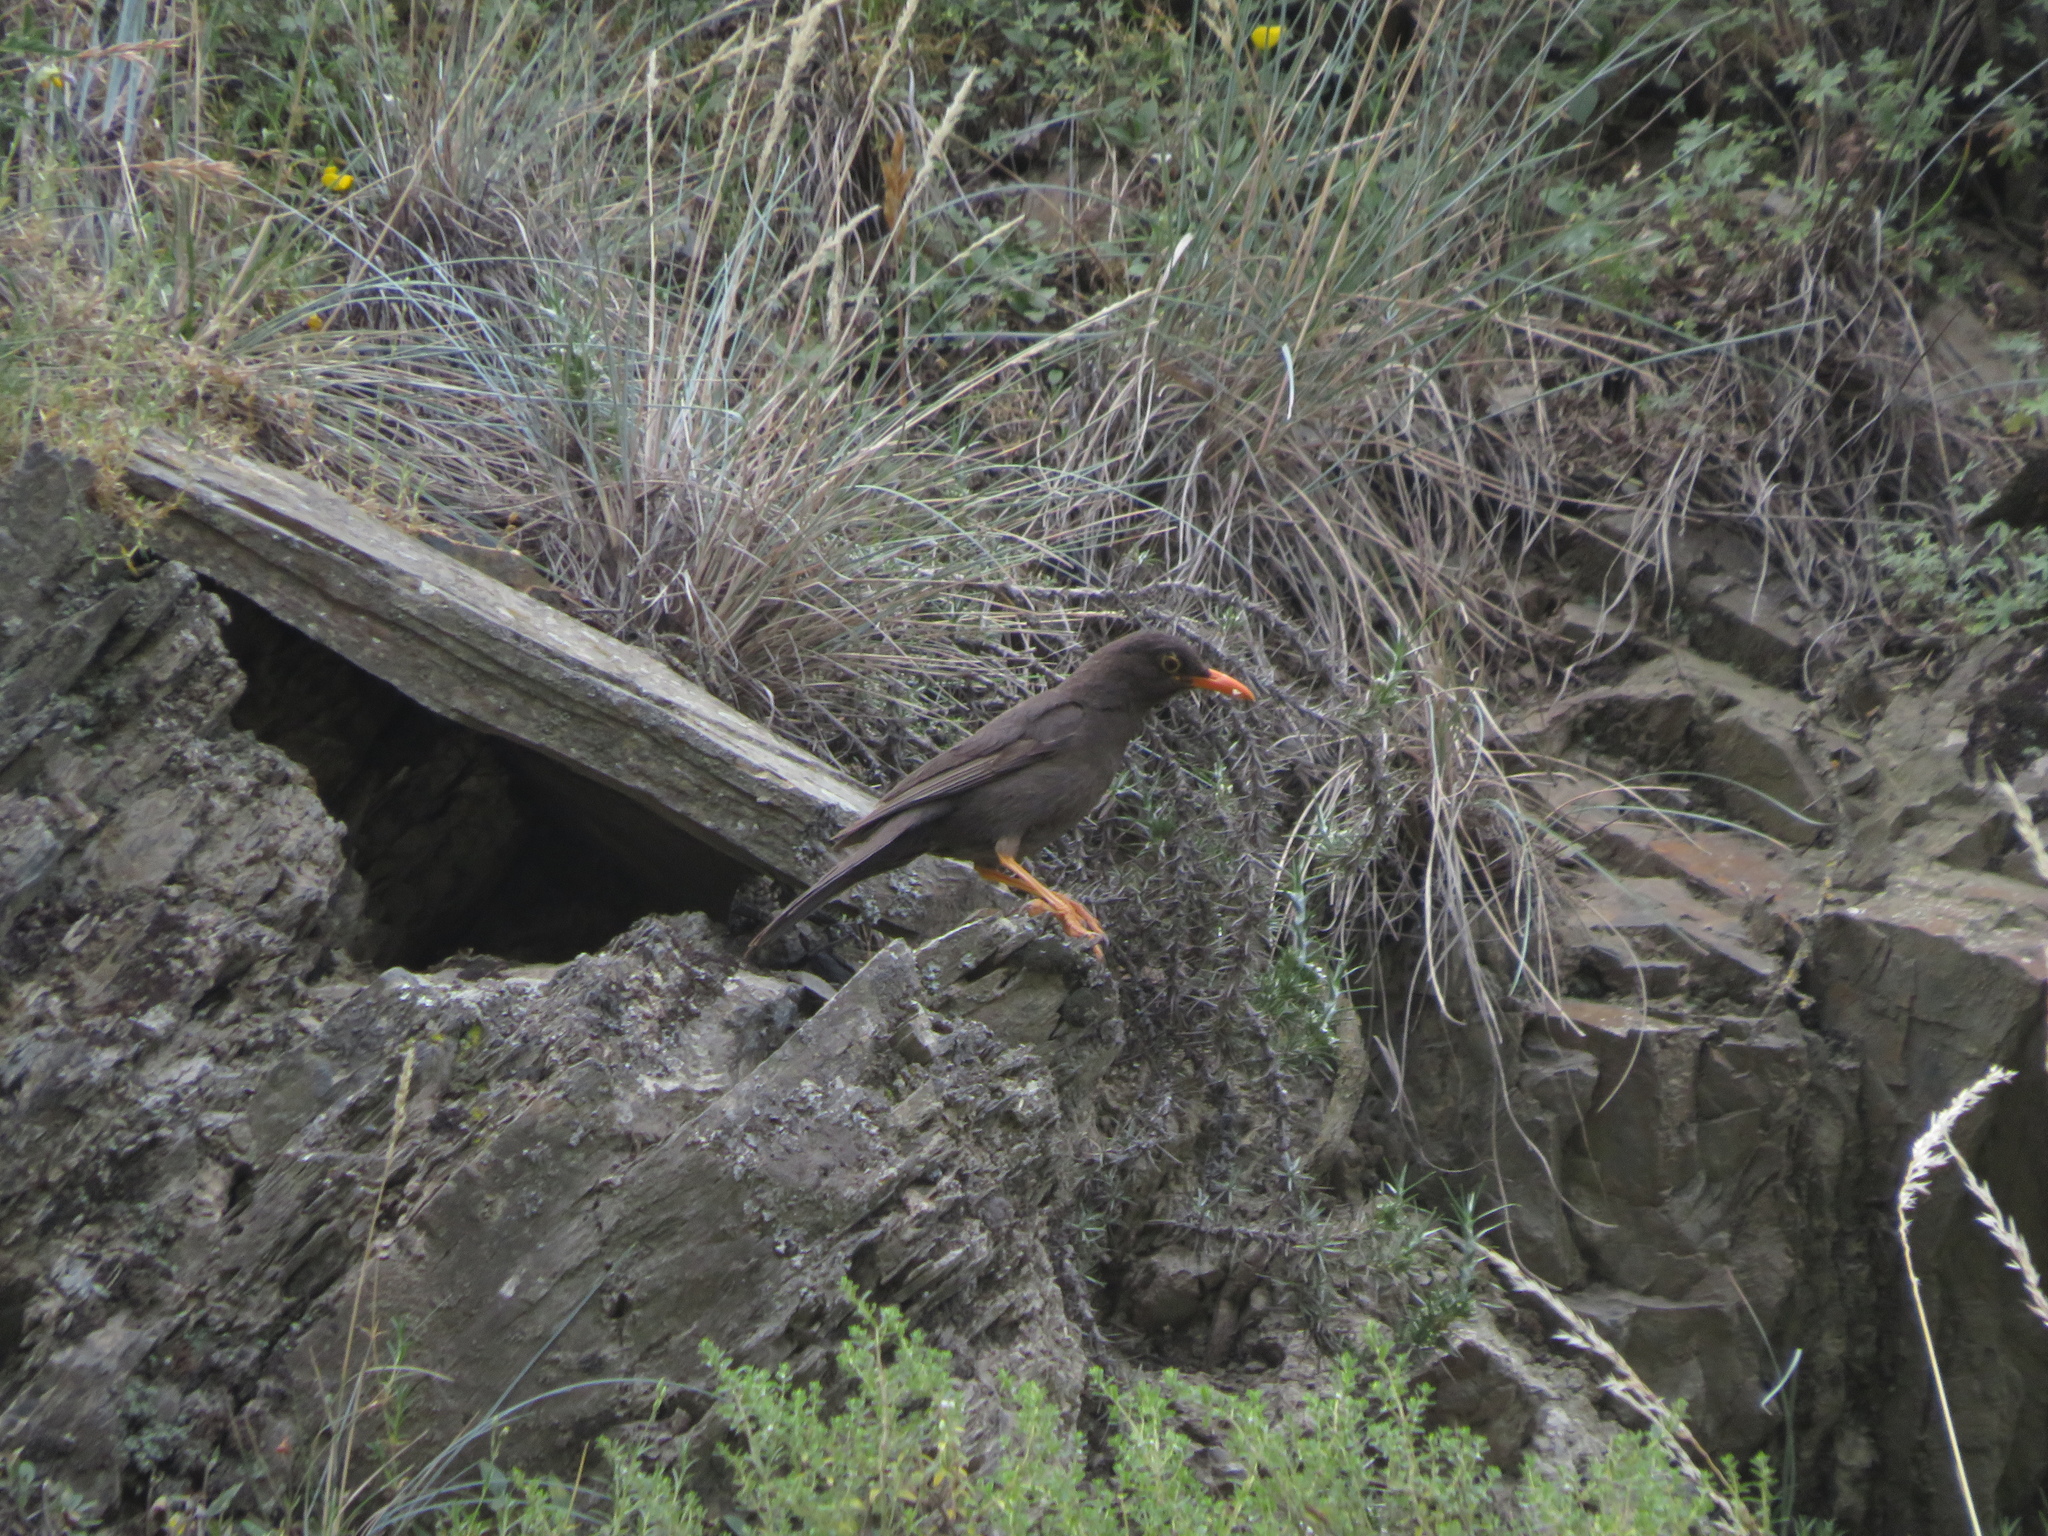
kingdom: Animalia
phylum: Chordata
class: Aves
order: Passeriformes
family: Turdidae
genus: Turdus
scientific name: Turdus chiguanco
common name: Chiguanco thrush
